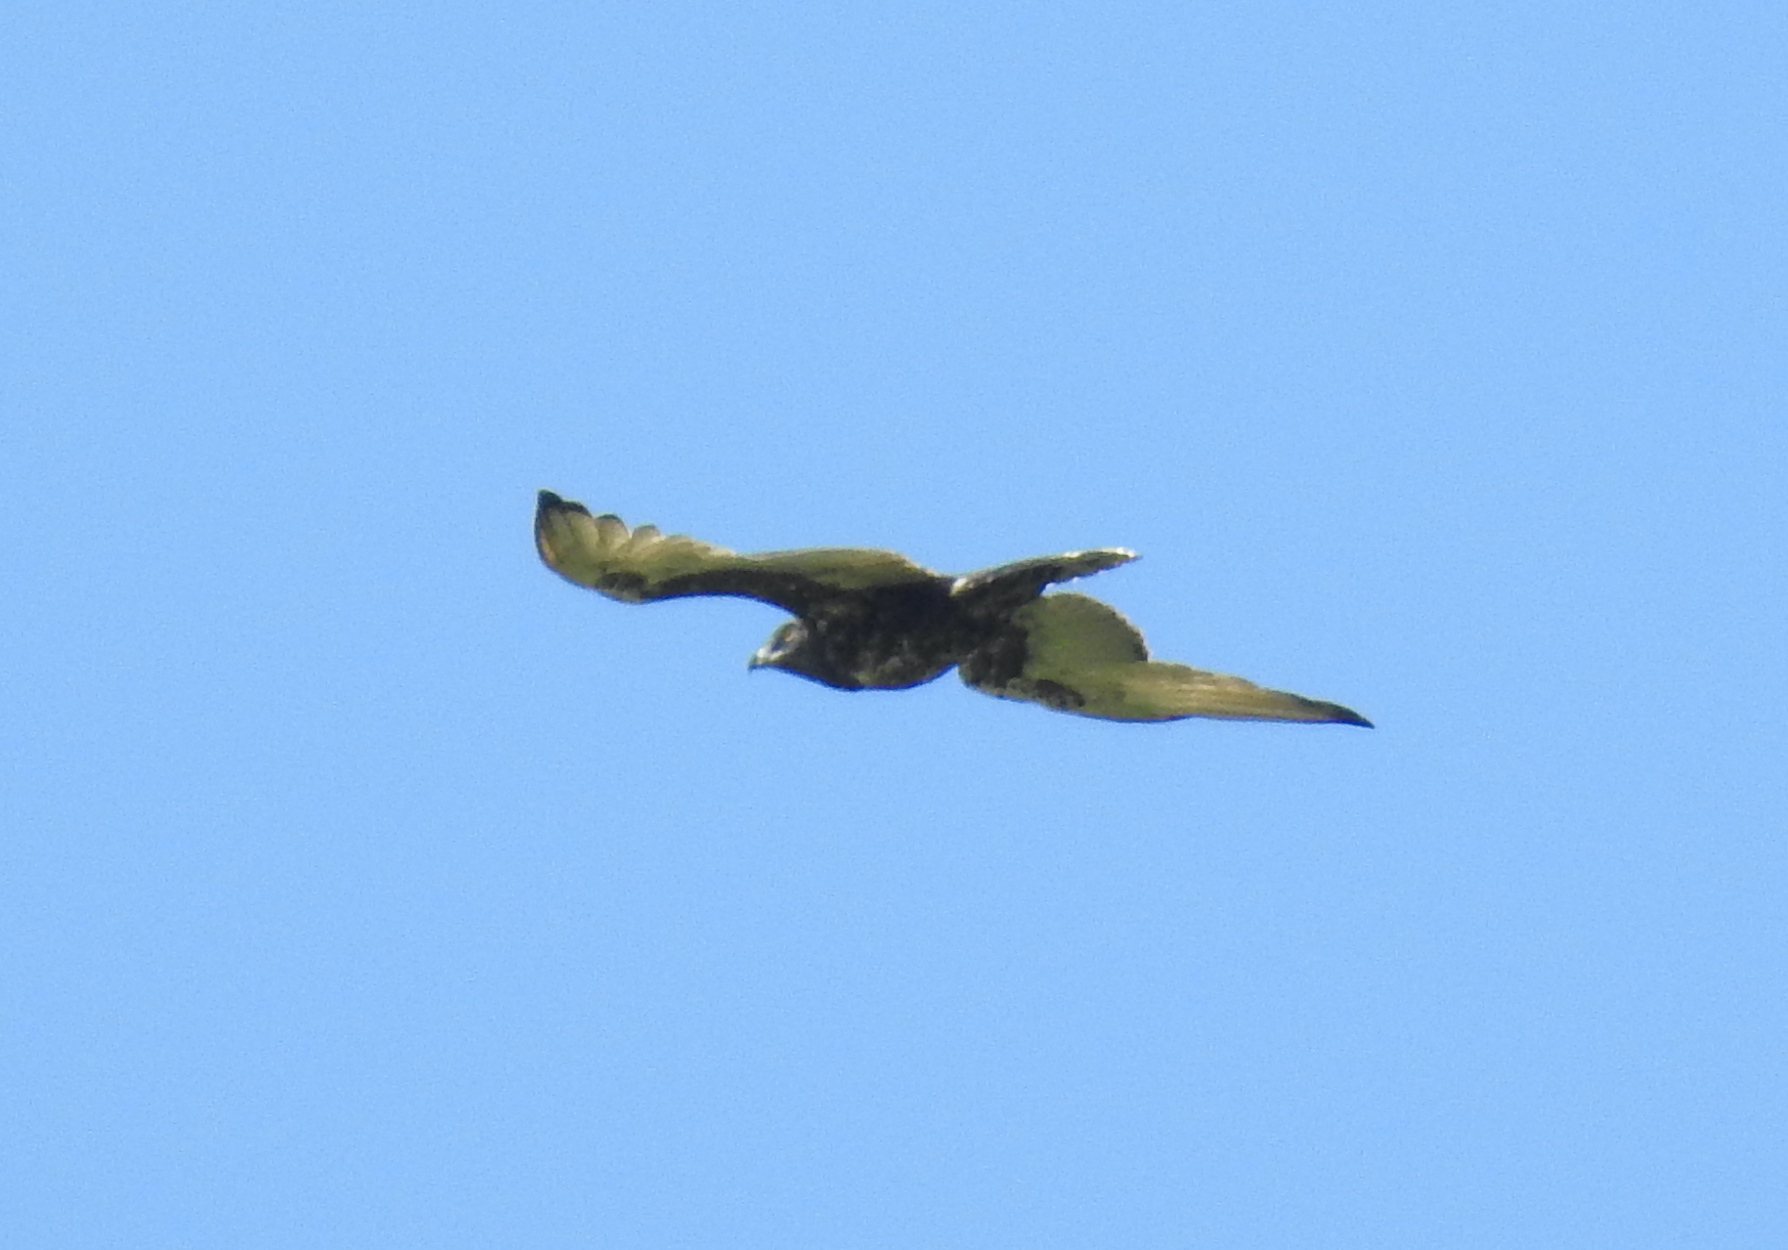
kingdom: Animalia
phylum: Chordata
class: Aves
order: Accipitriformes
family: Accipitridae
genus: Circaetus
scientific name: Circaetus cinereus
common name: Brown snake eagle
